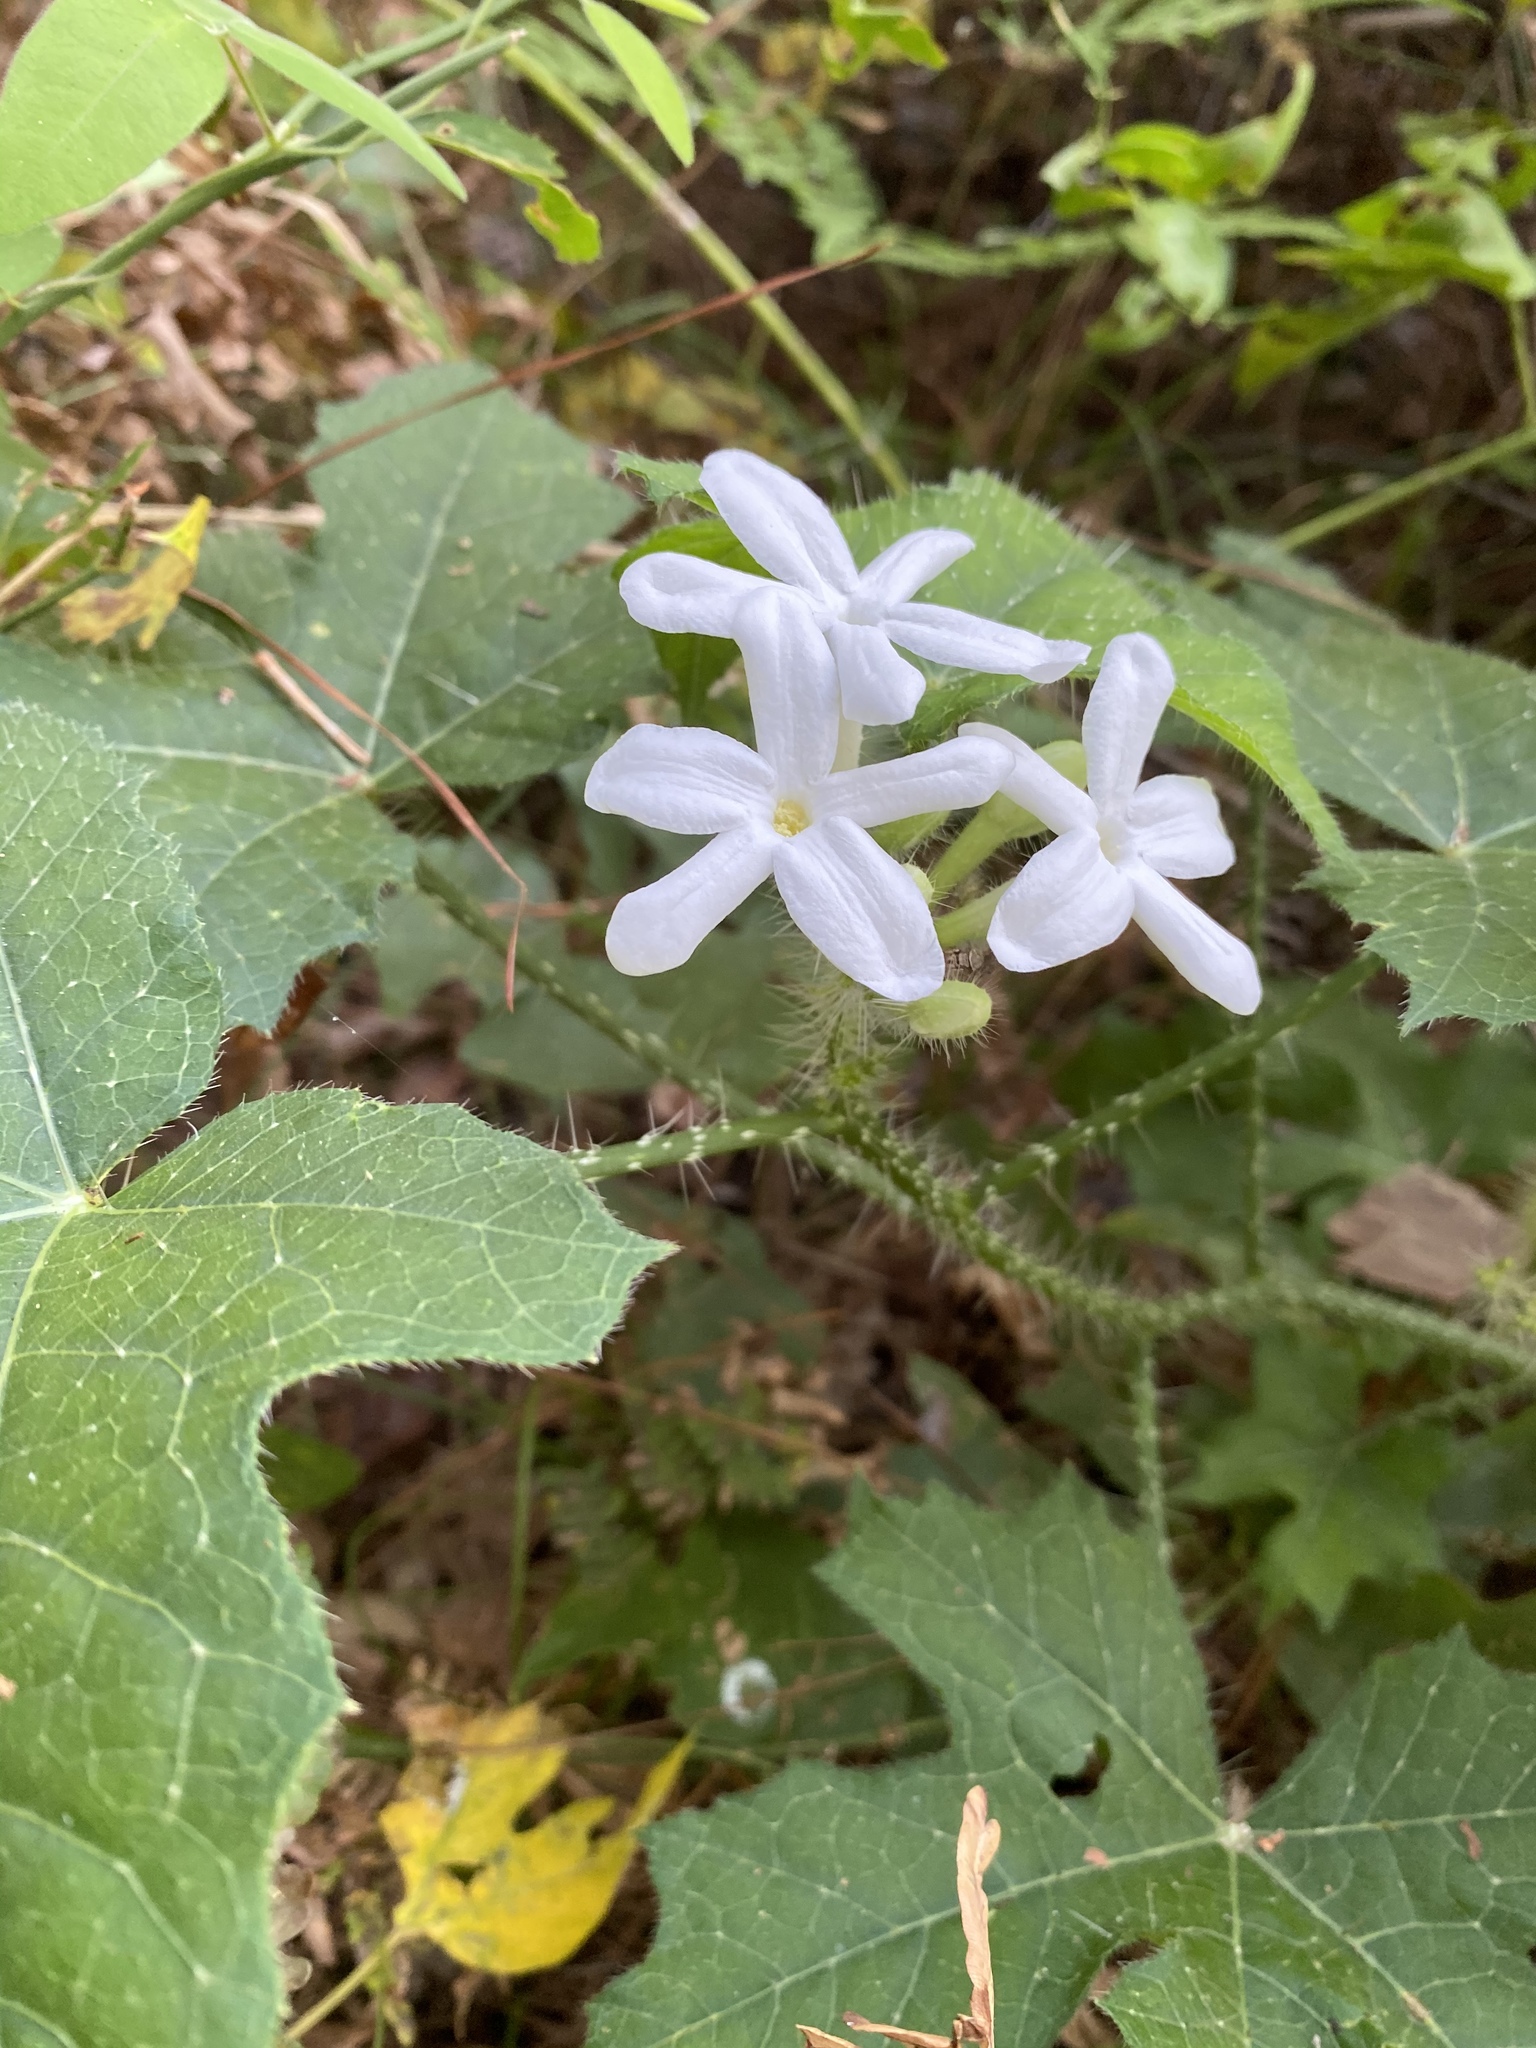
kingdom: Plantae
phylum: Tracheophyta
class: Magnoliopsida
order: Malpighiales
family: Euphorbiaceae
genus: Cnidoscolus
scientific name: Cnidoscolus texanus
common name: Texas bull-nettle
